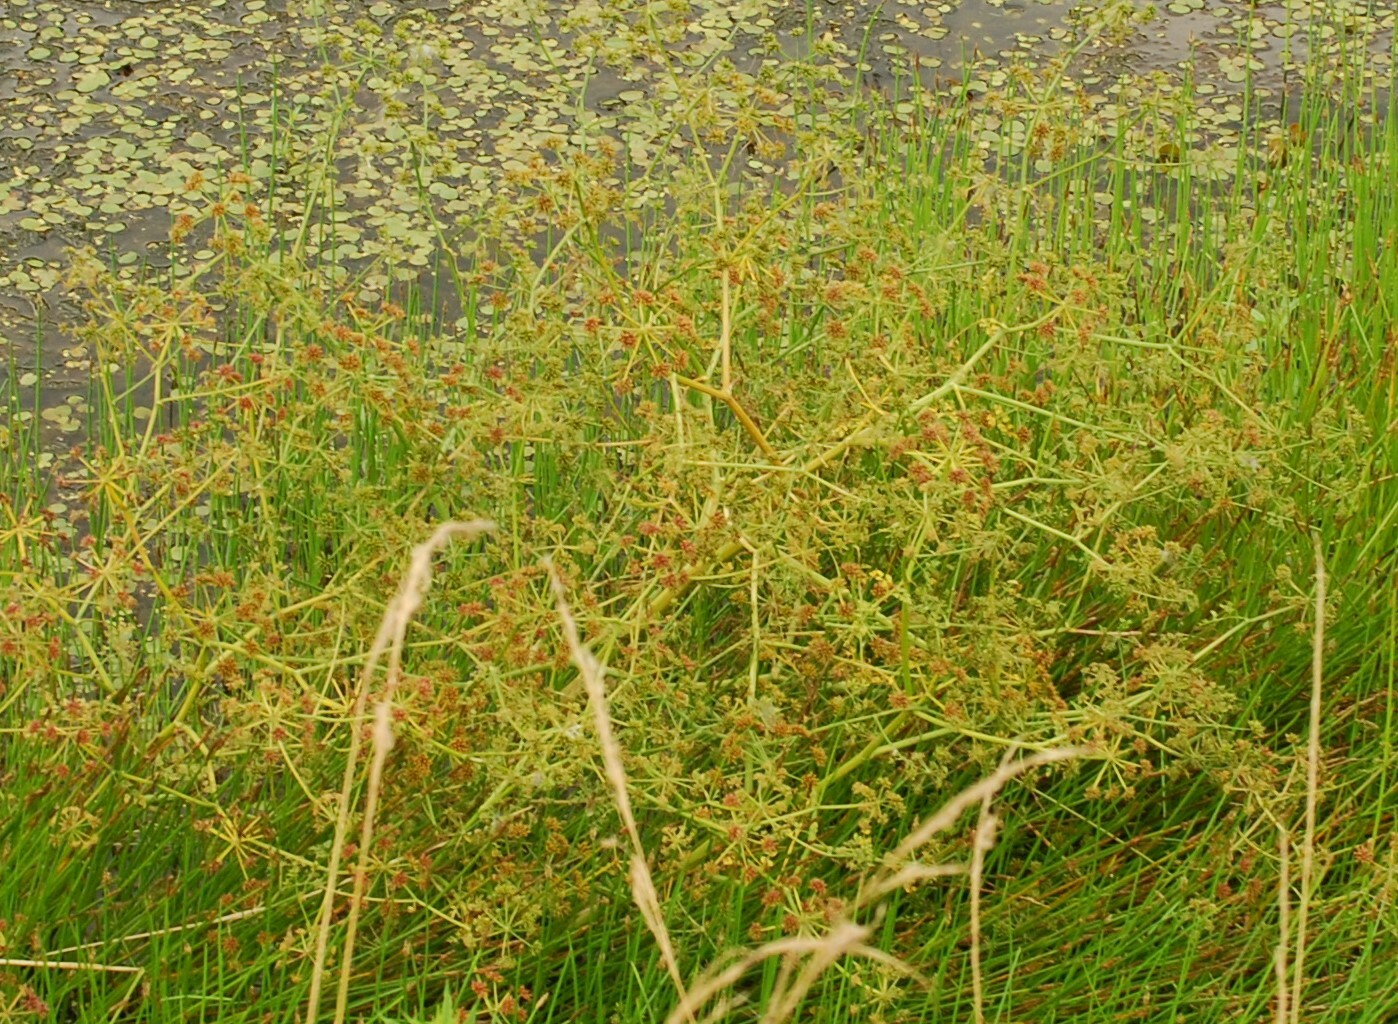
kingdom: Plantae
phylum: Tracheophyta
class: Magnoliopsida
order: Apiales
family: Apiaceae
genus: Oenanthe
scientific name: Oenanthe aquatica
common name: Fine-leaved water-dropwort
